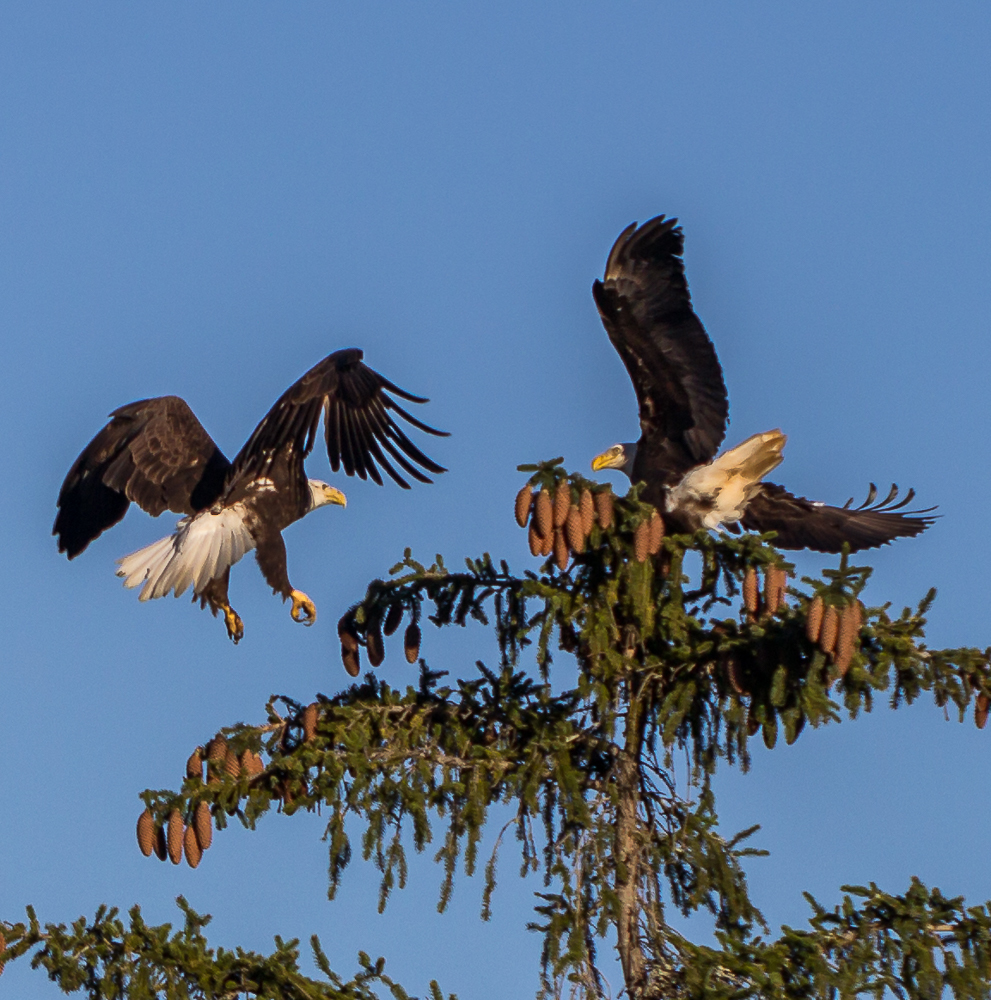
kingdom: Animalia
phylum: Chordata
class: Aves
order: Accipitriformes
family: Accipitridae
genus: Haliaeetus
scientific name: Haliaeetus leucocephalus
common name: Bald eagle
